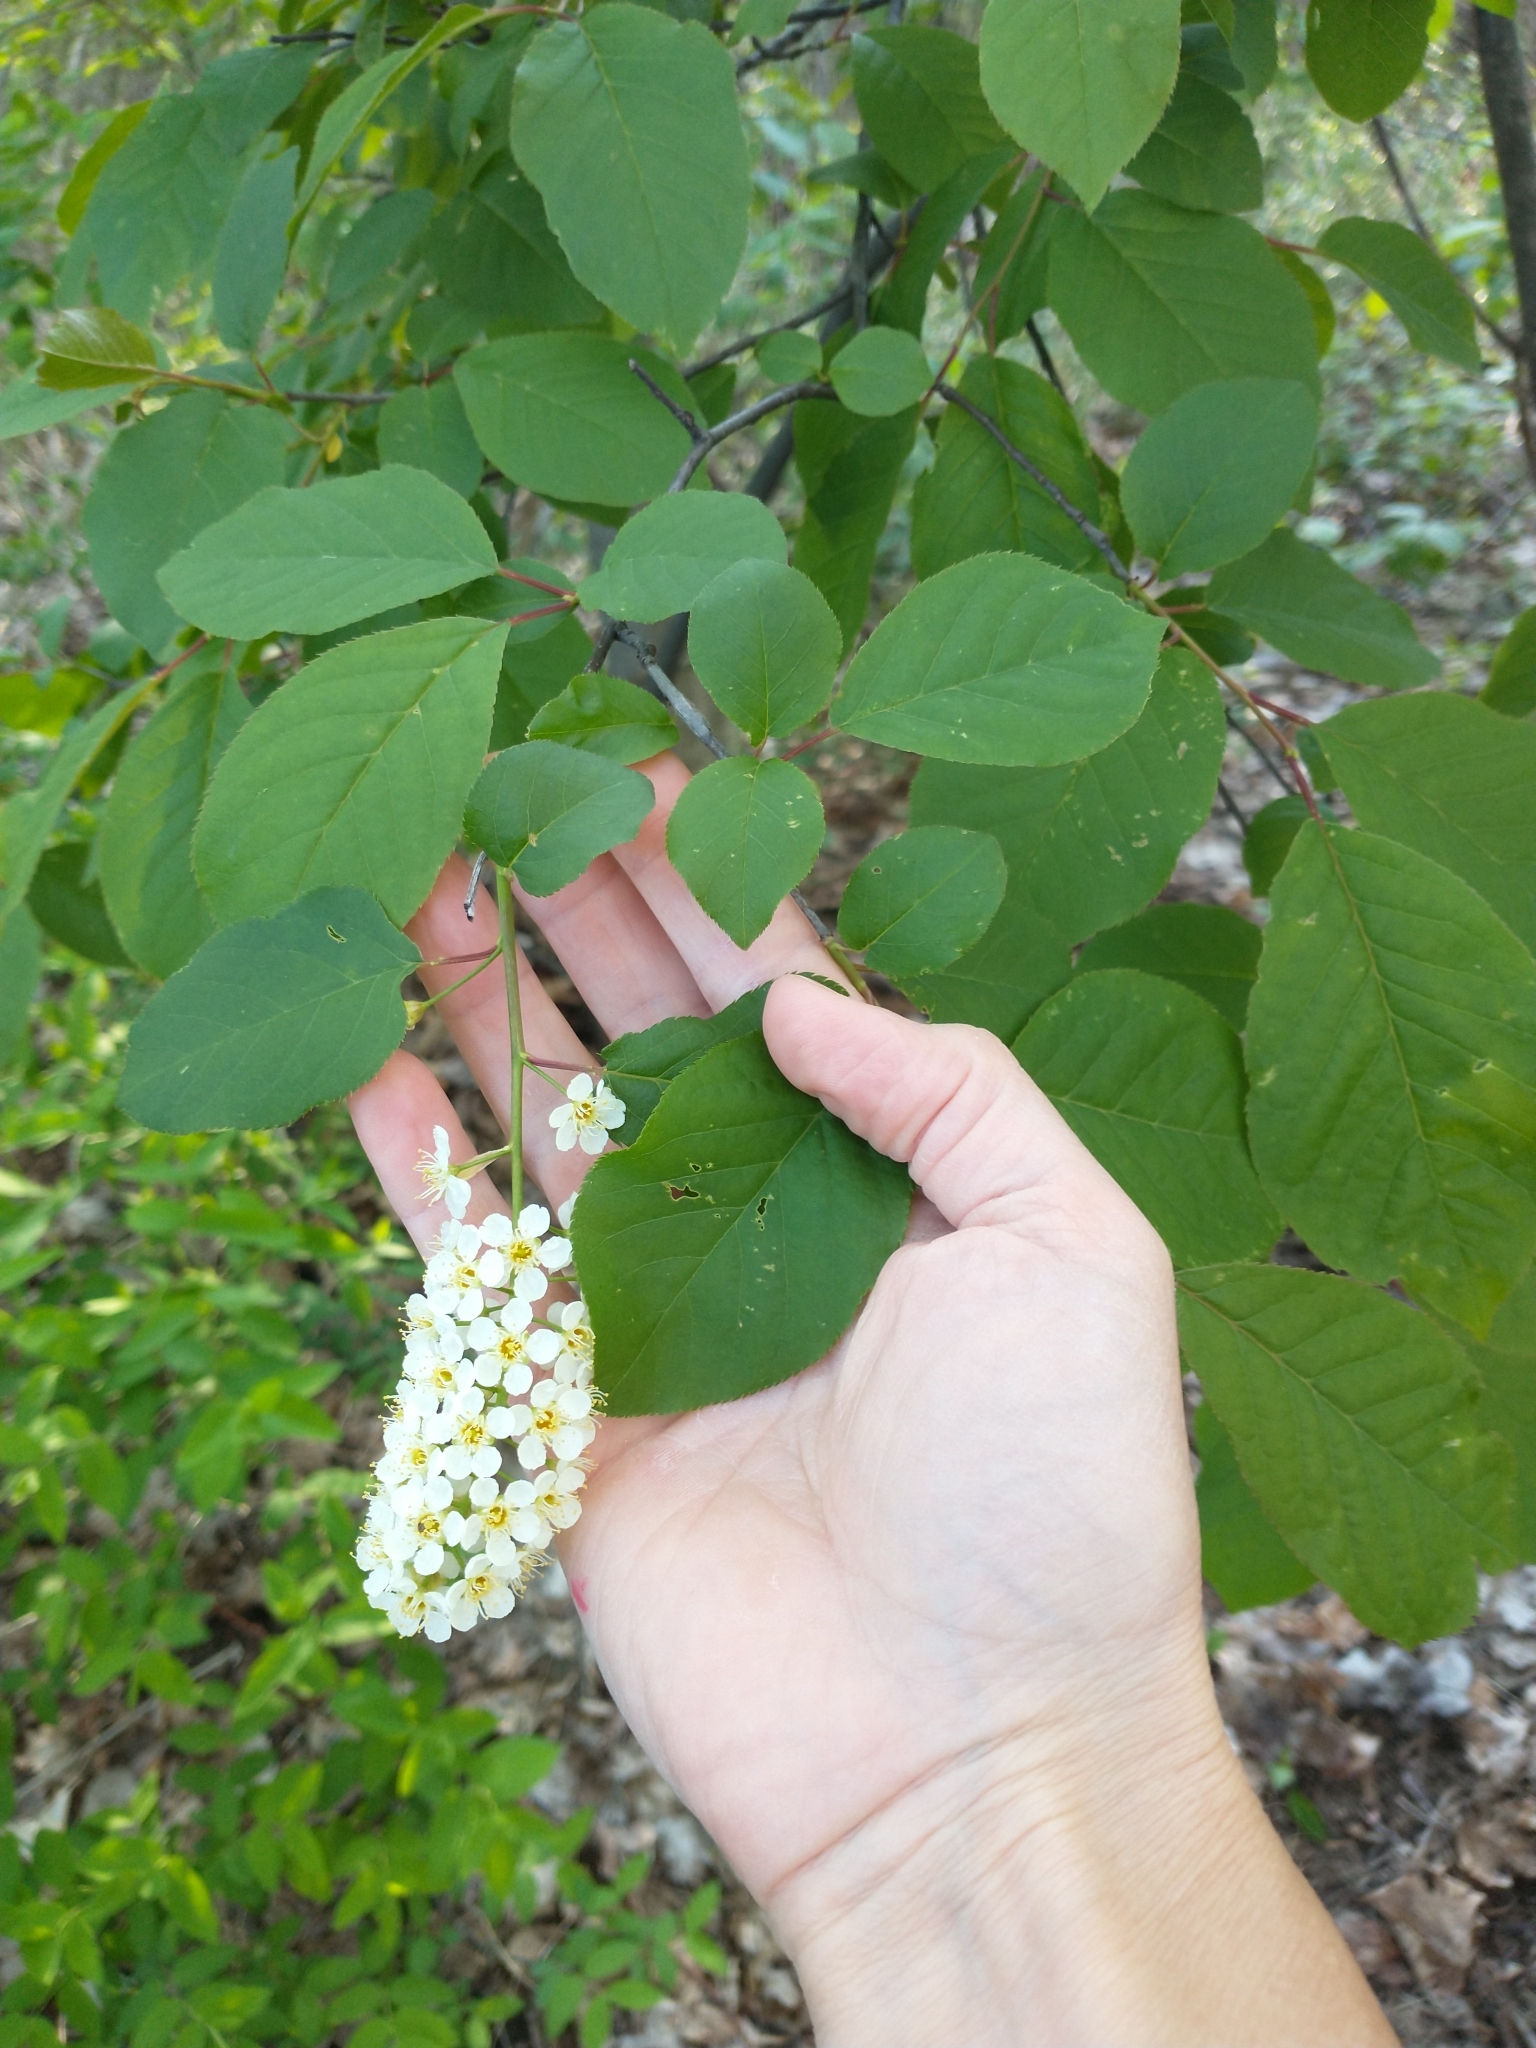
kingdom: Plantae
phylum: Tracheophyta
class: Magnoliopsida
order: Rosales
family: Rosaceae
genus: Prunus
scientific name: Prunus virginiana
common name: Chokecherry
